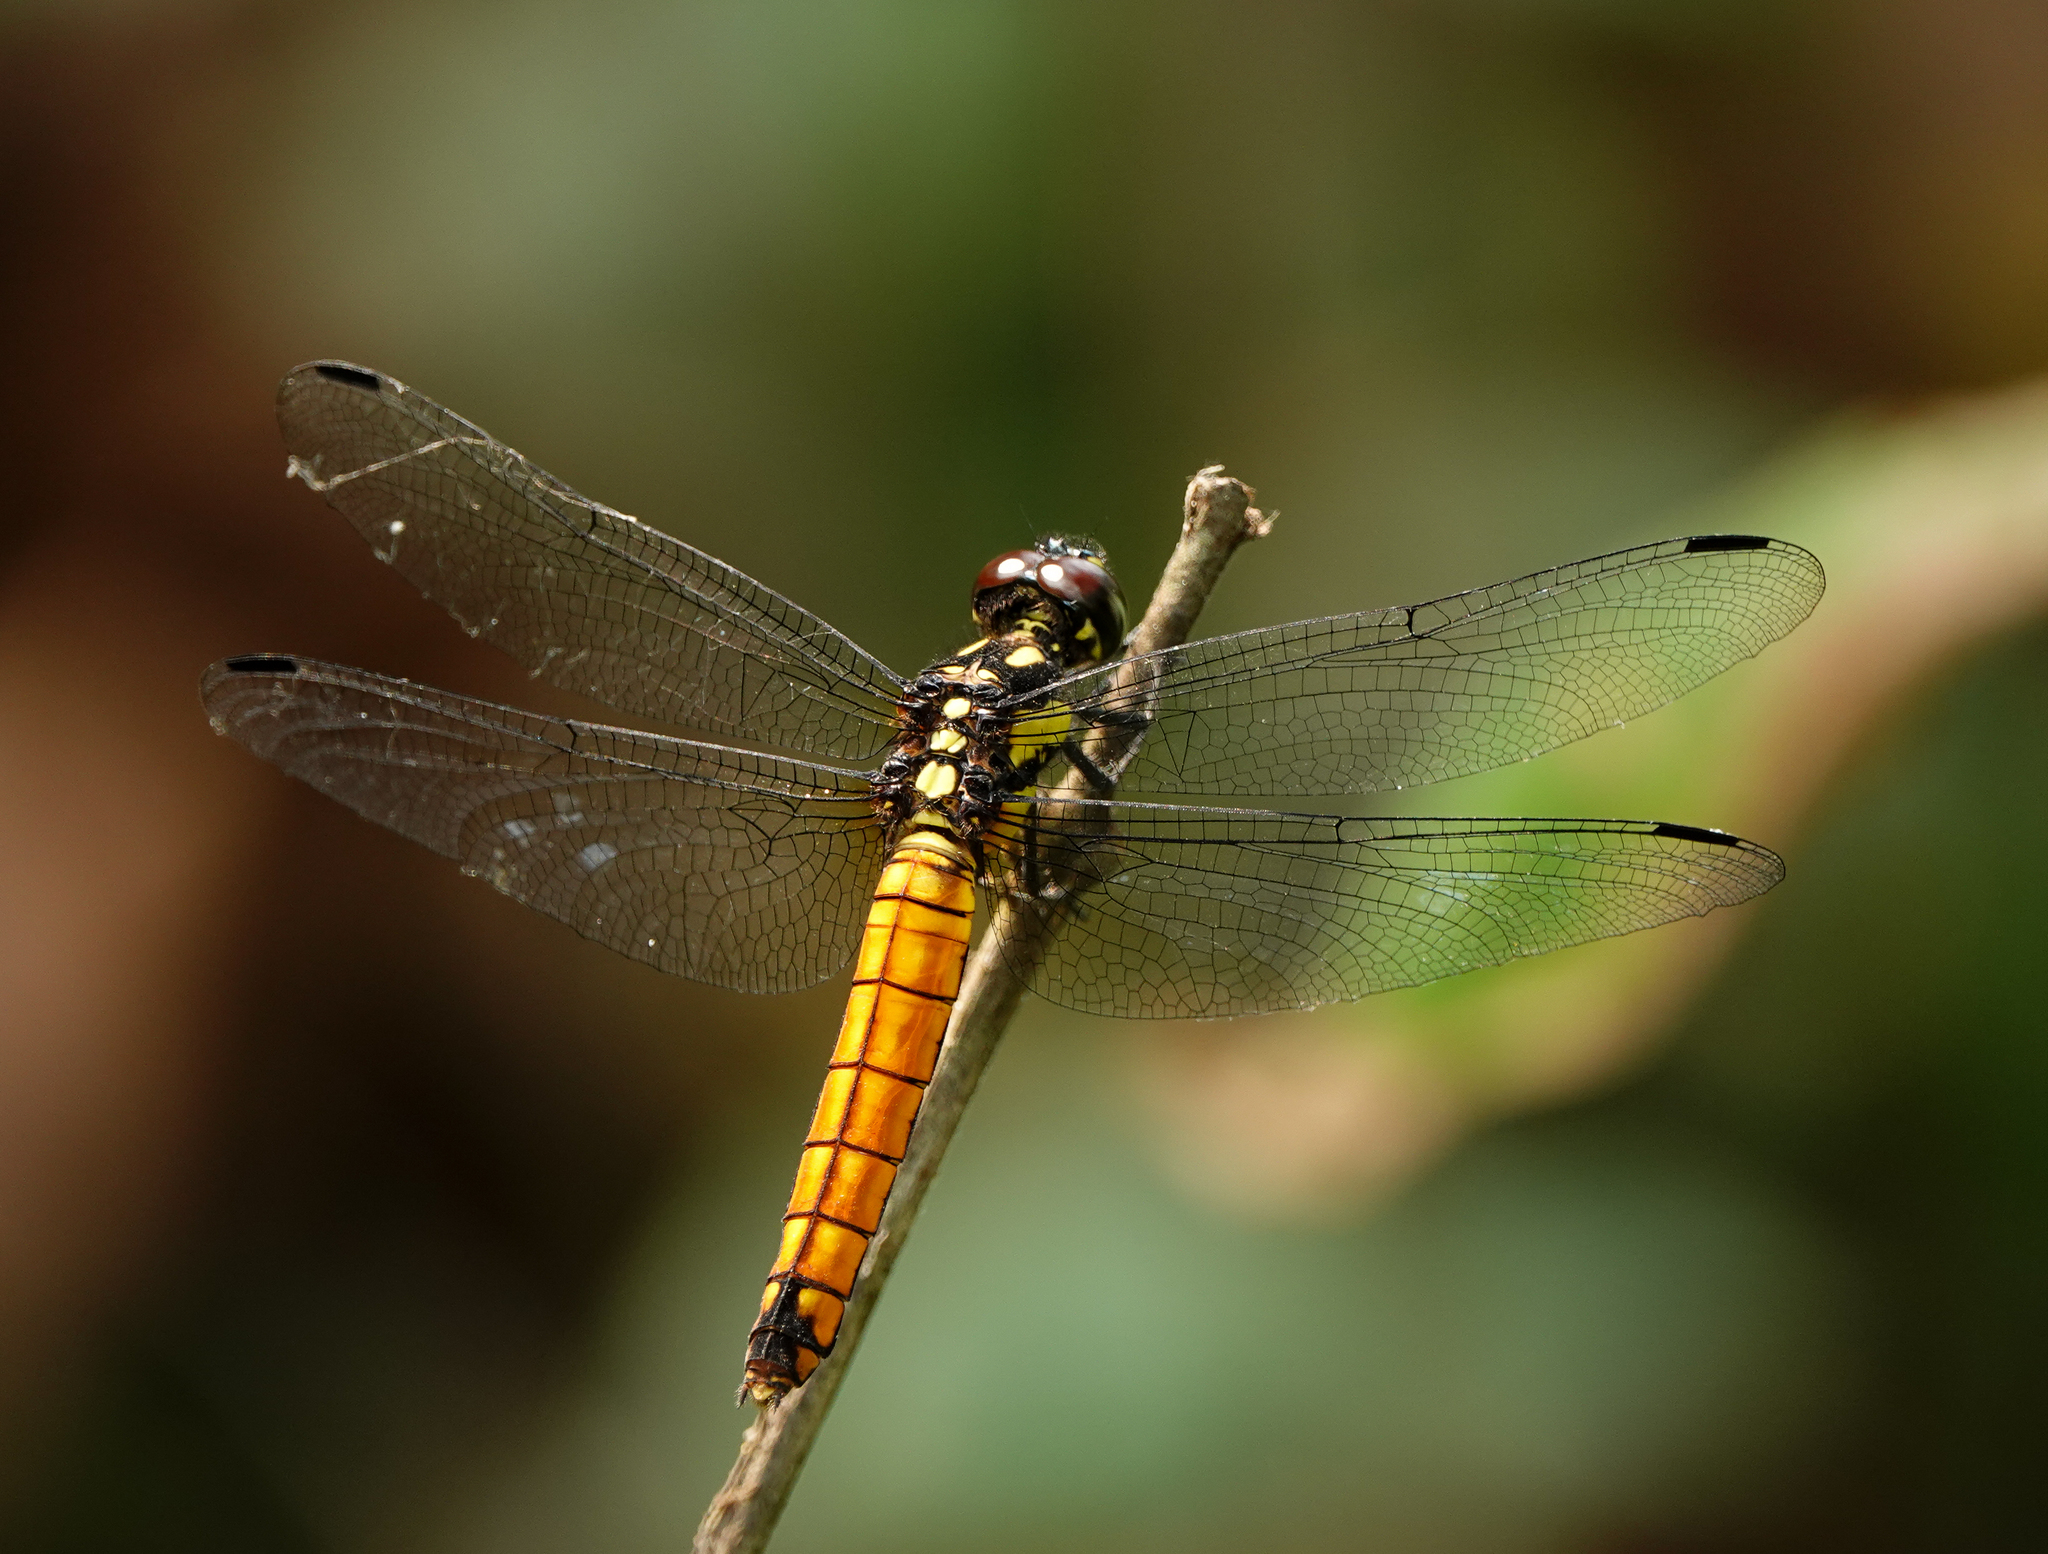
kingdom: Animalia
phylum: Arthropoda
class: Insecta
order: Odonata
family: Libellulidae
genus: Lyriothemis
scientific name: Lyriothemis tricolor
